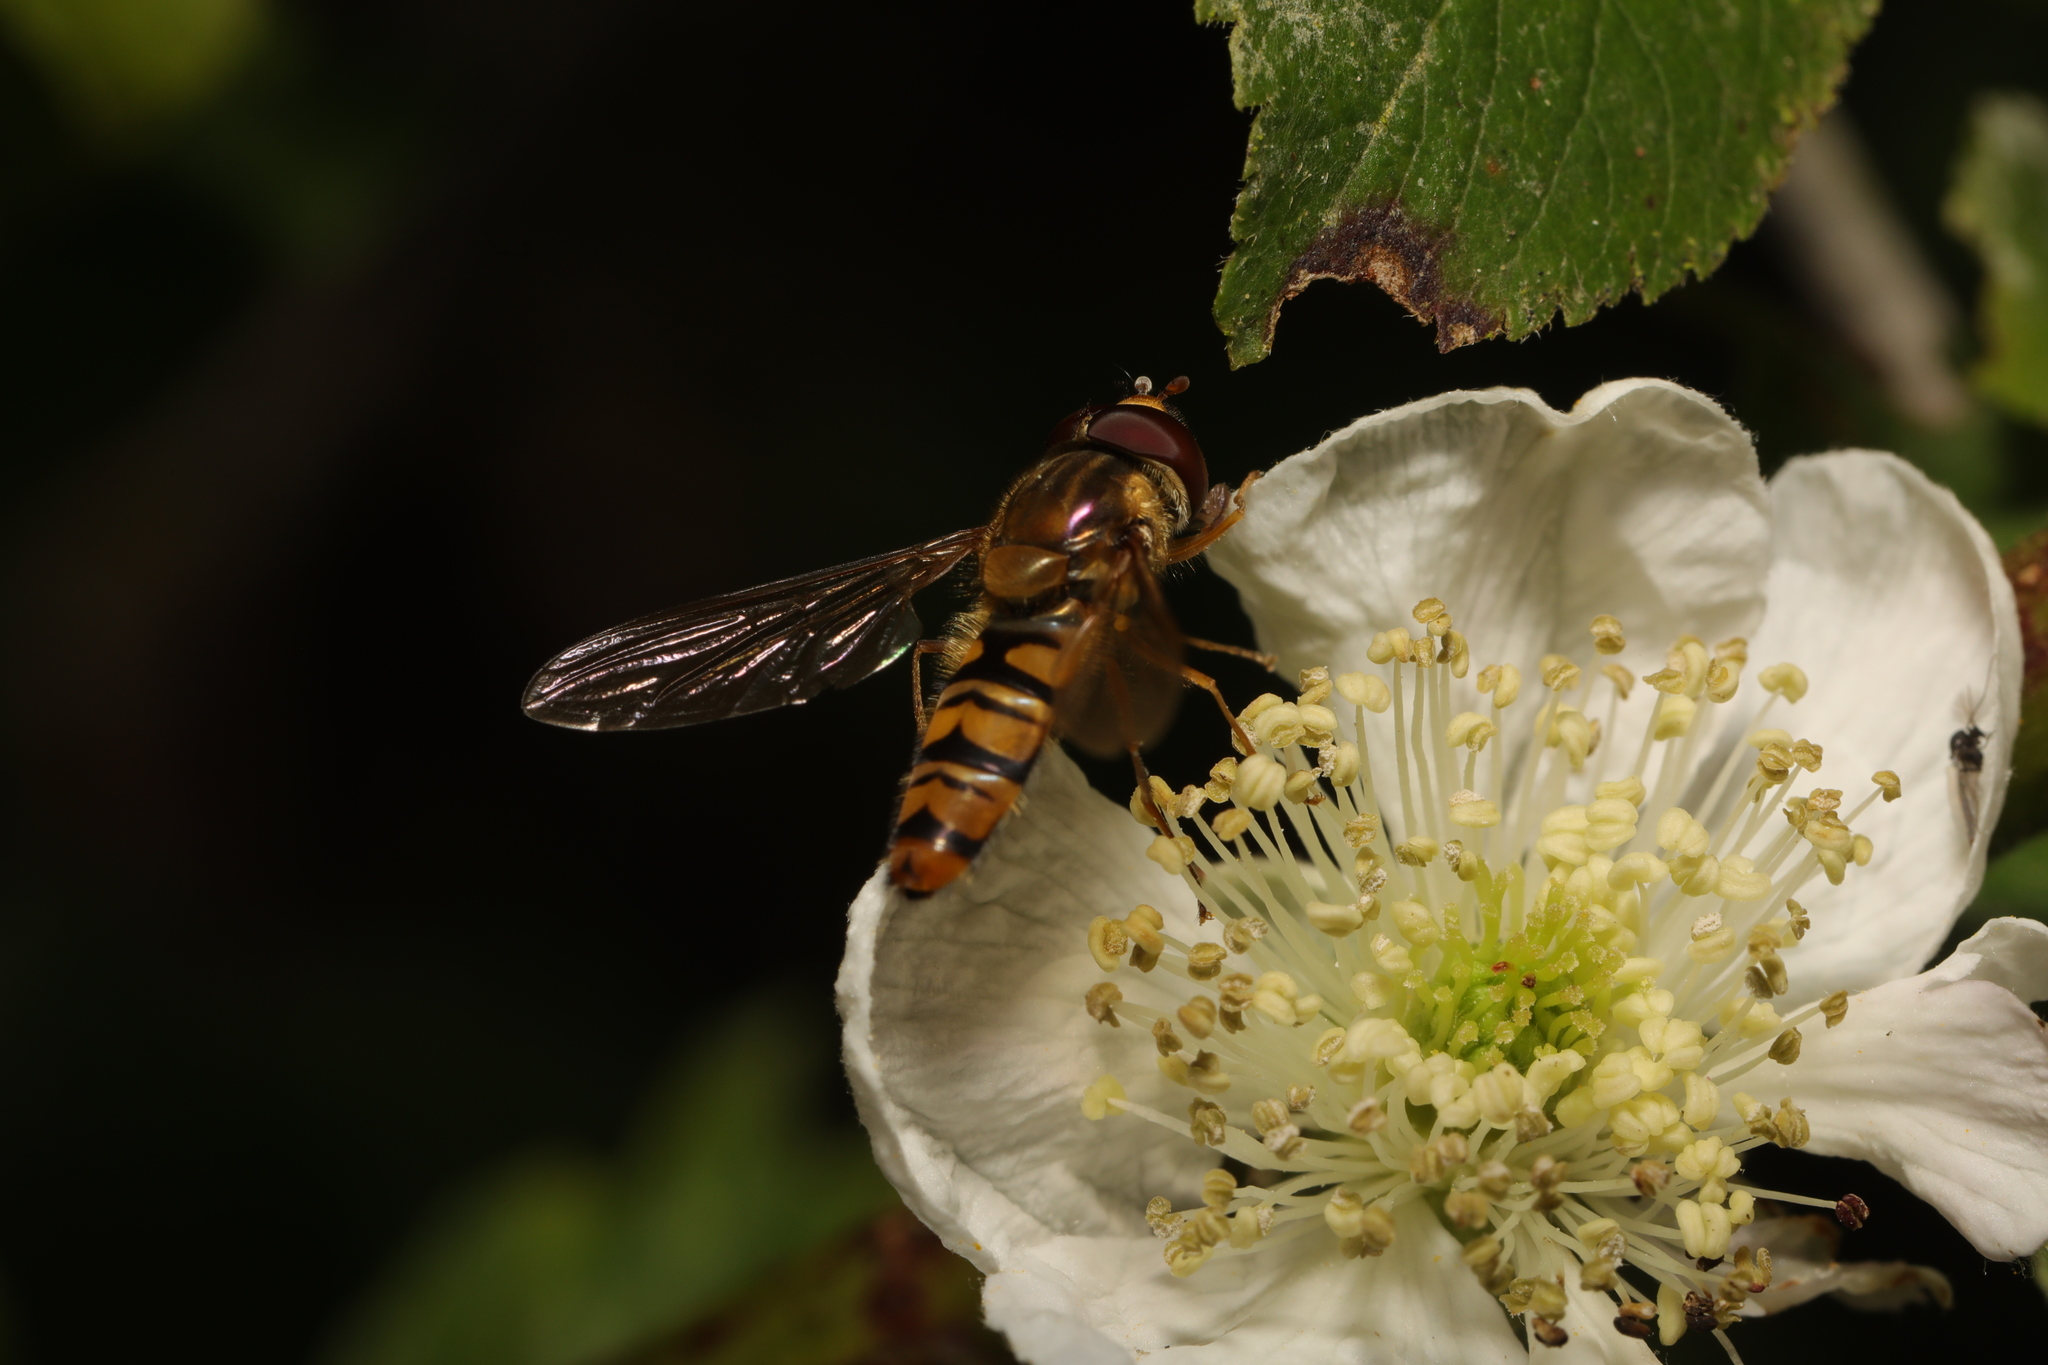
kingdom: Animalia
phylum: Arthropoda
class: Insecta
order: Diptera
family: Syrphidae
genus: Episyrphus
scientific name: Episyrphus balteatus
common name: Marmalade hoverfly
